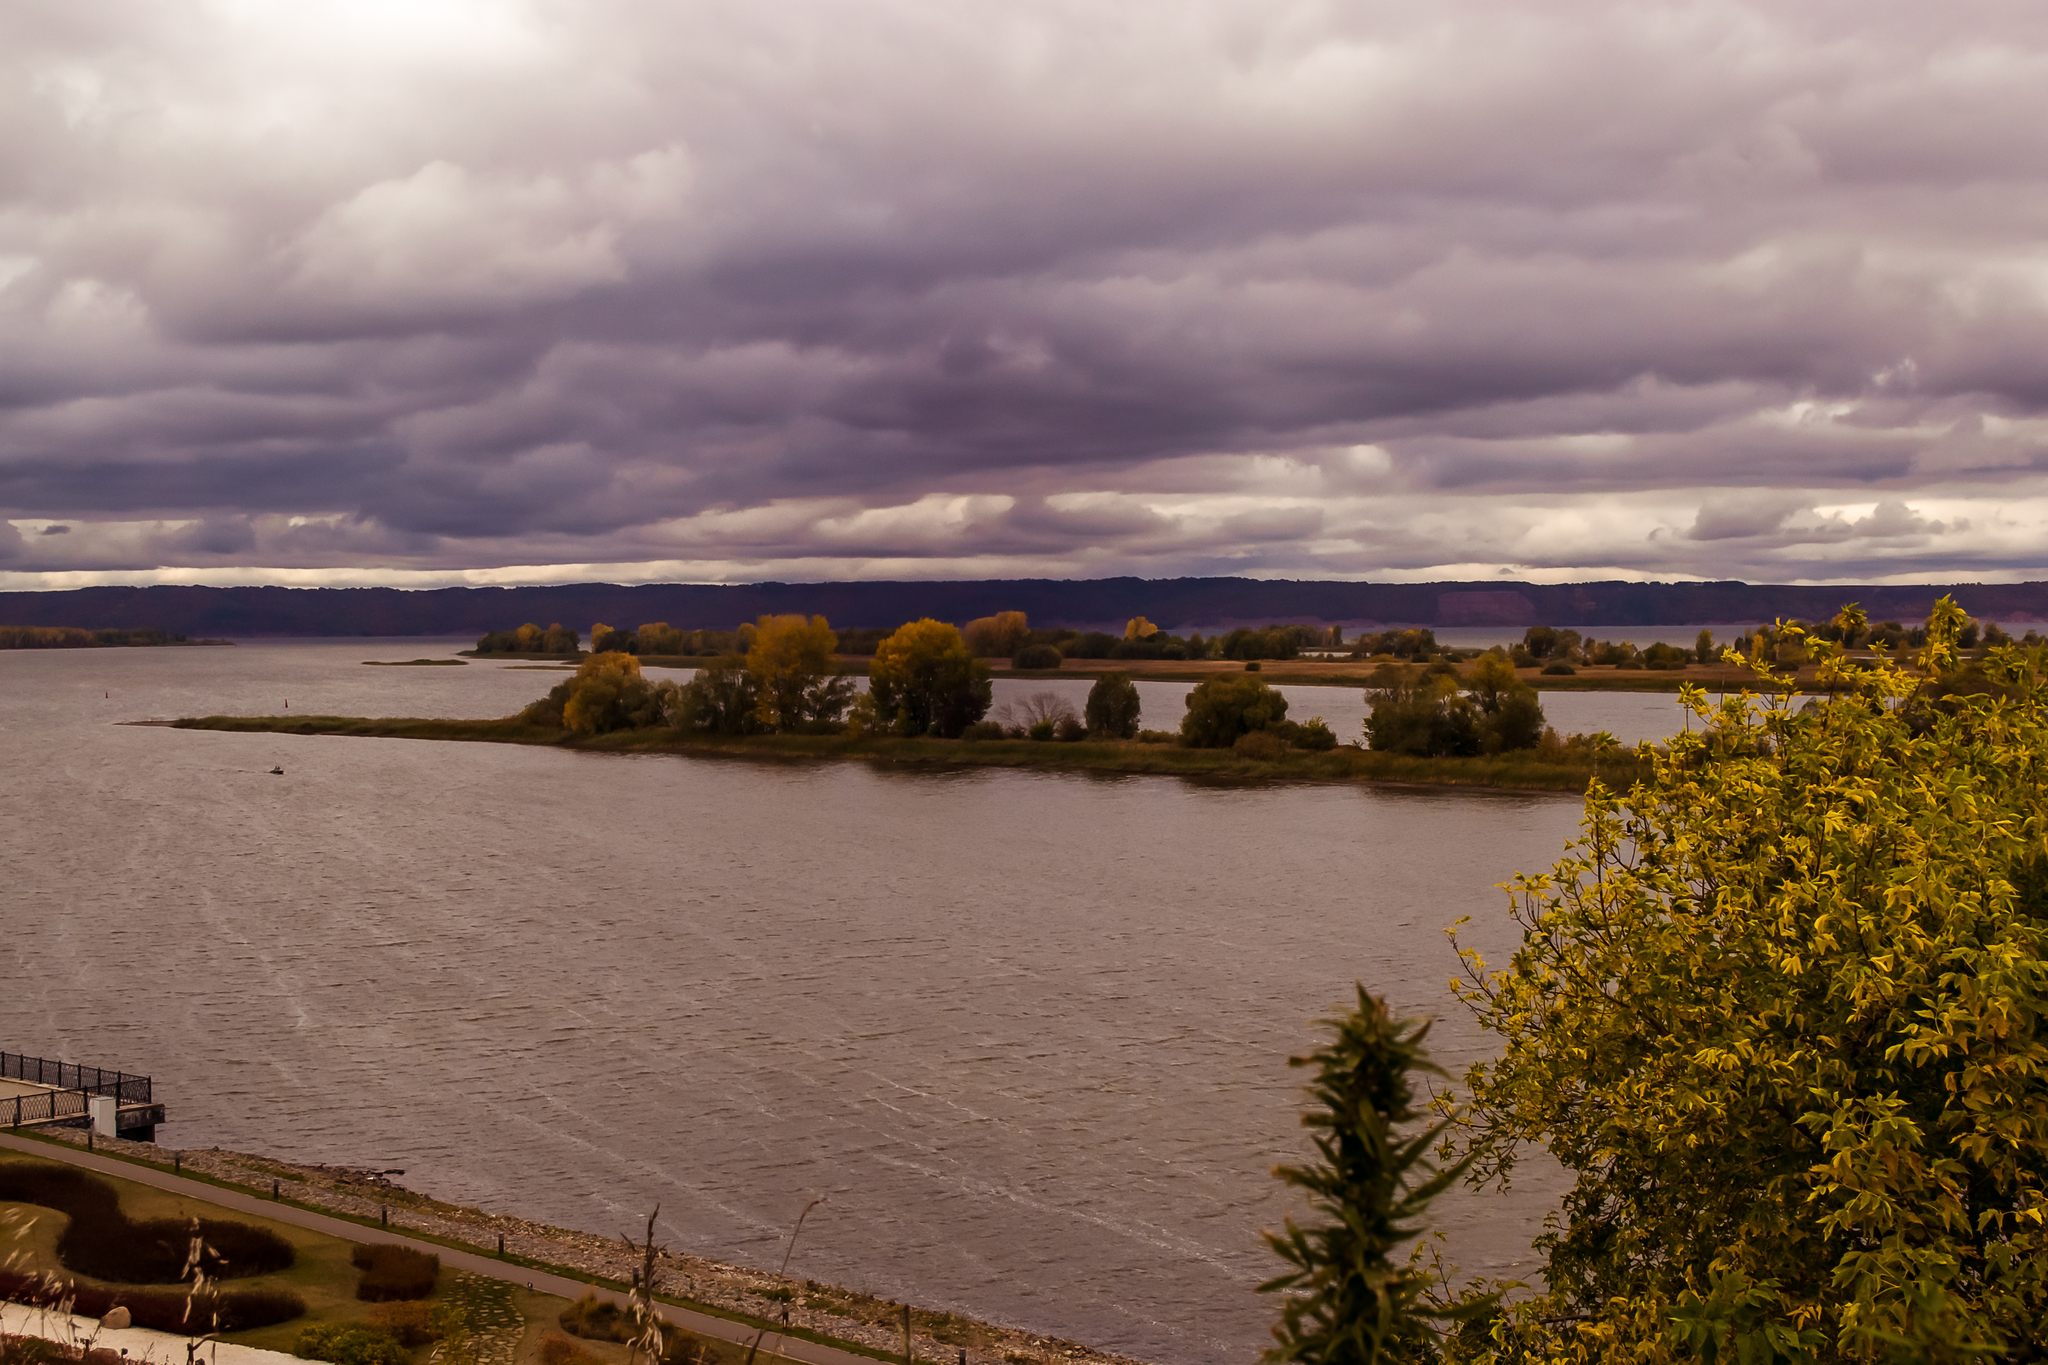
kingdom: Plantae
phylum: Tracheophyta
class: Magnoliopsida
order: Sapindales
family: Sapindaceae
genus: Acer
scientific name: Acer negundo
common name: Ashleaf maple
